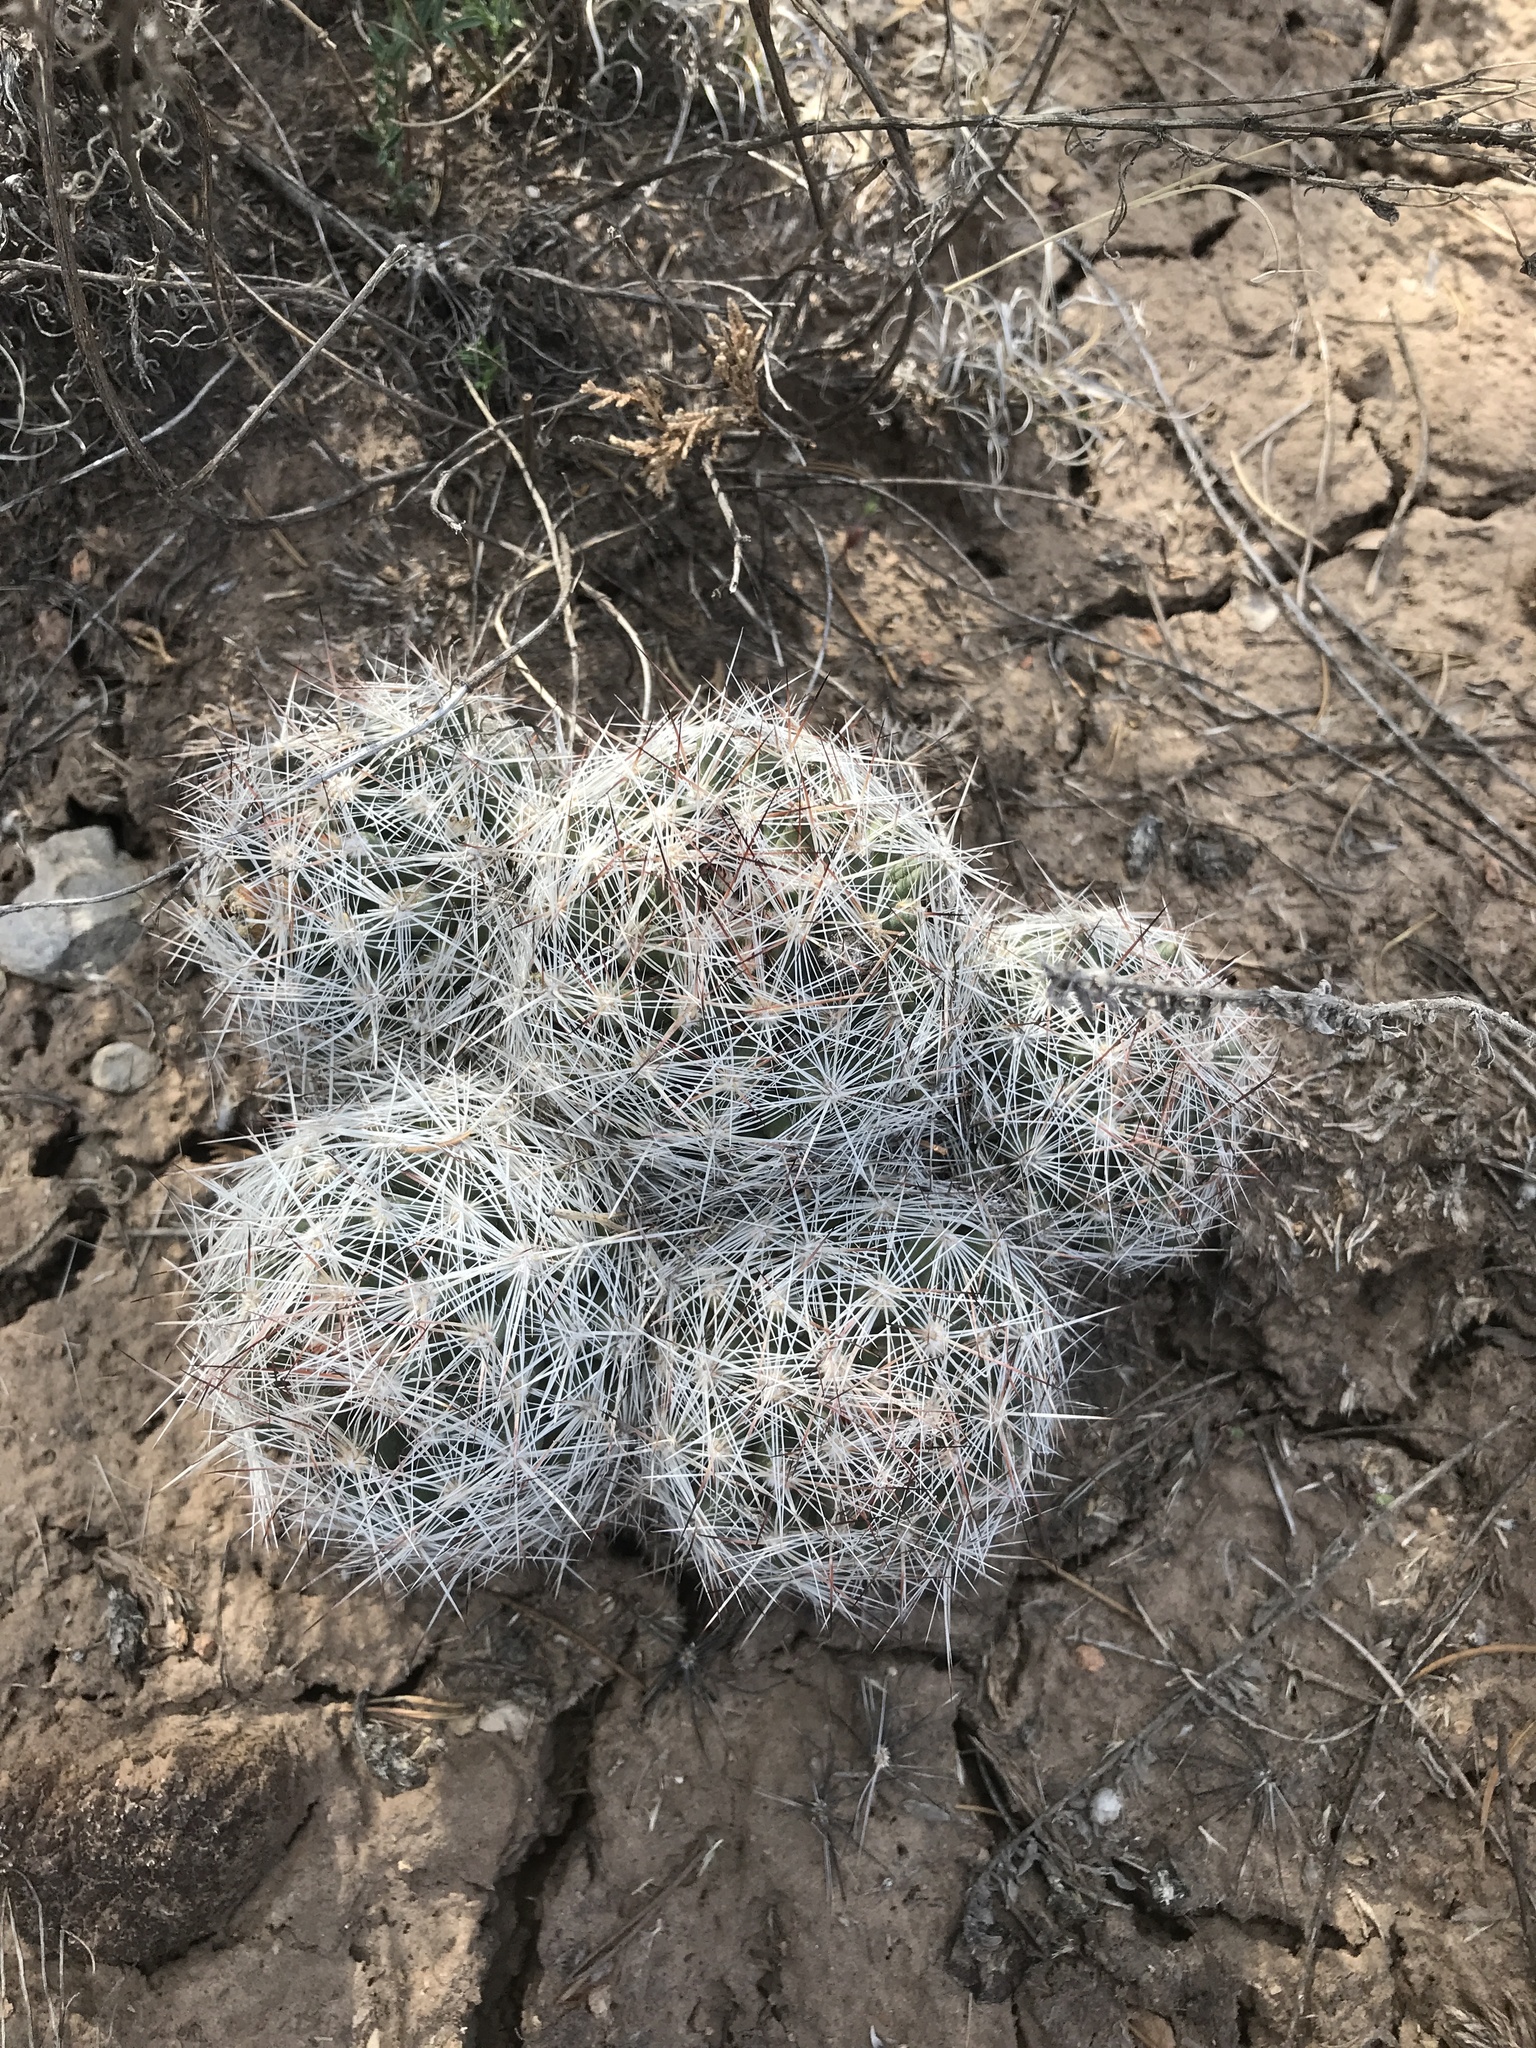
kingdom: Plantae
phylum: Tracheophyta
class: Magnoliopsida
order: Caryophyllales
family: Cactaceae
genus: Pelecyphora
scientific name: Pelecyphora vivipara
